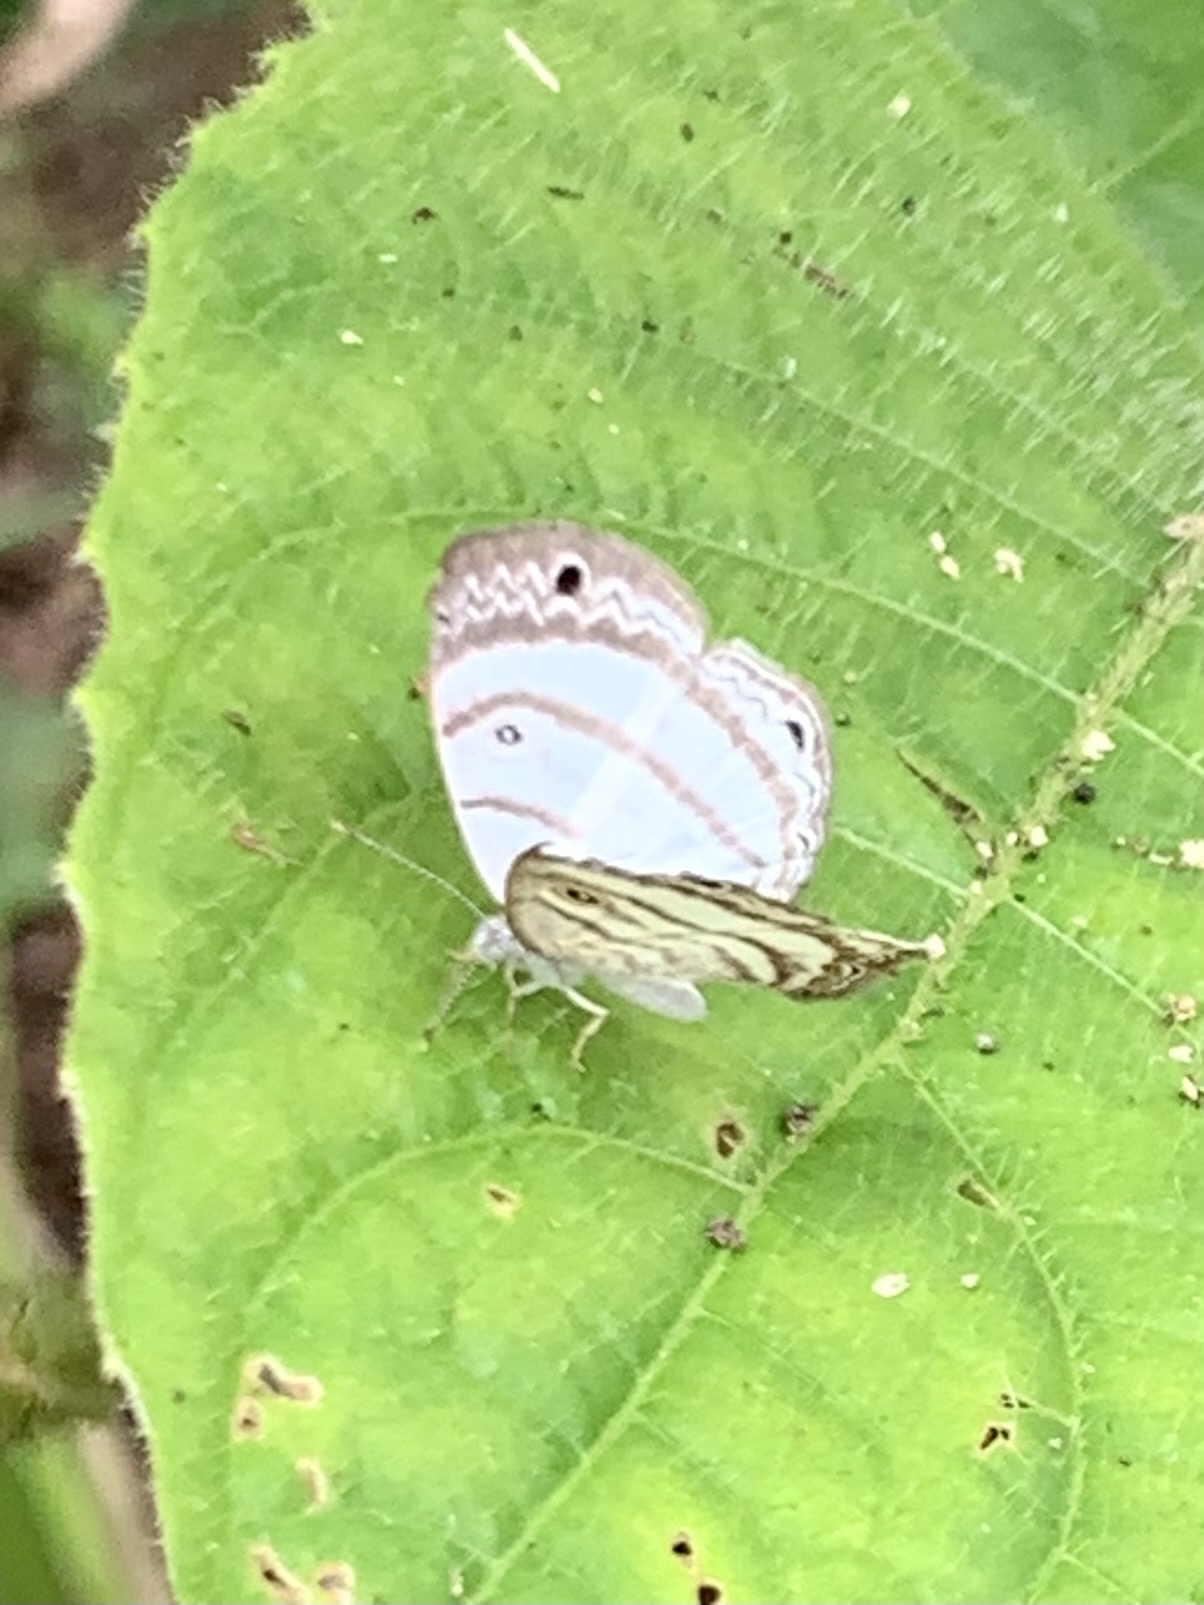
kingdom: Animalia
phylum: Arthropoda
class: Insecta
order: Lepidoptera
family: Riodinidae
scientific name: Riodinidae
